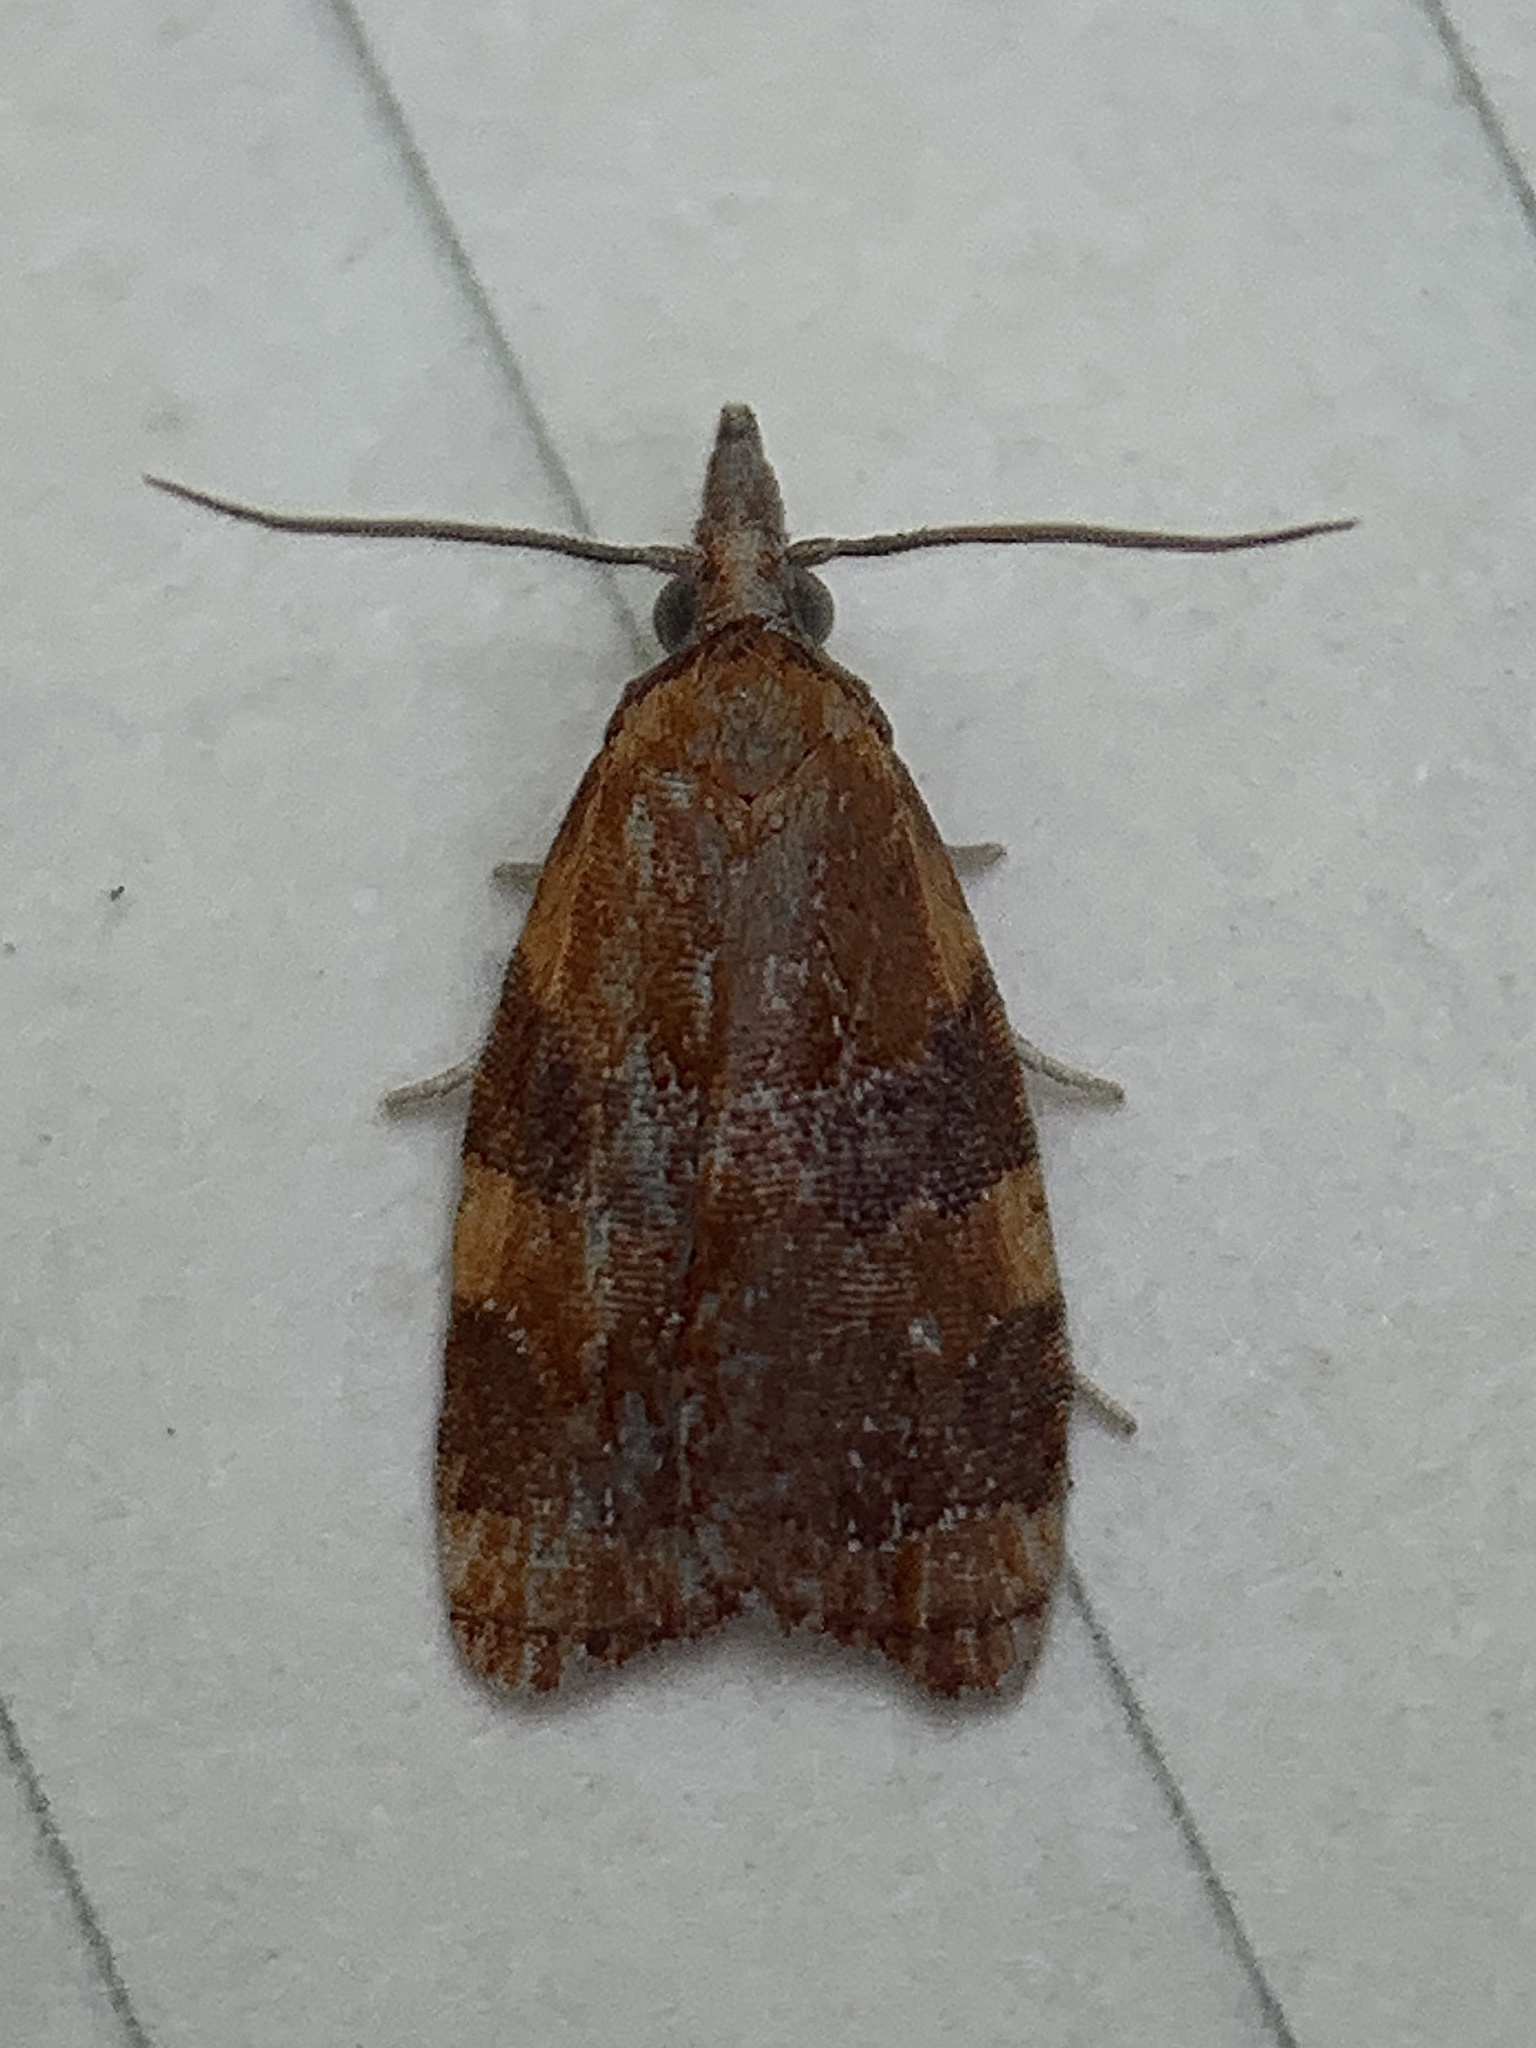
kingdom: Animalia
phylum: Arthropoda
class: Insecta
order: Lepidoptera
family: Tortricidae
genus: Cenopis
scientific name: Cenopis diluticostana
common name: Spring dead-leaf roller moth
